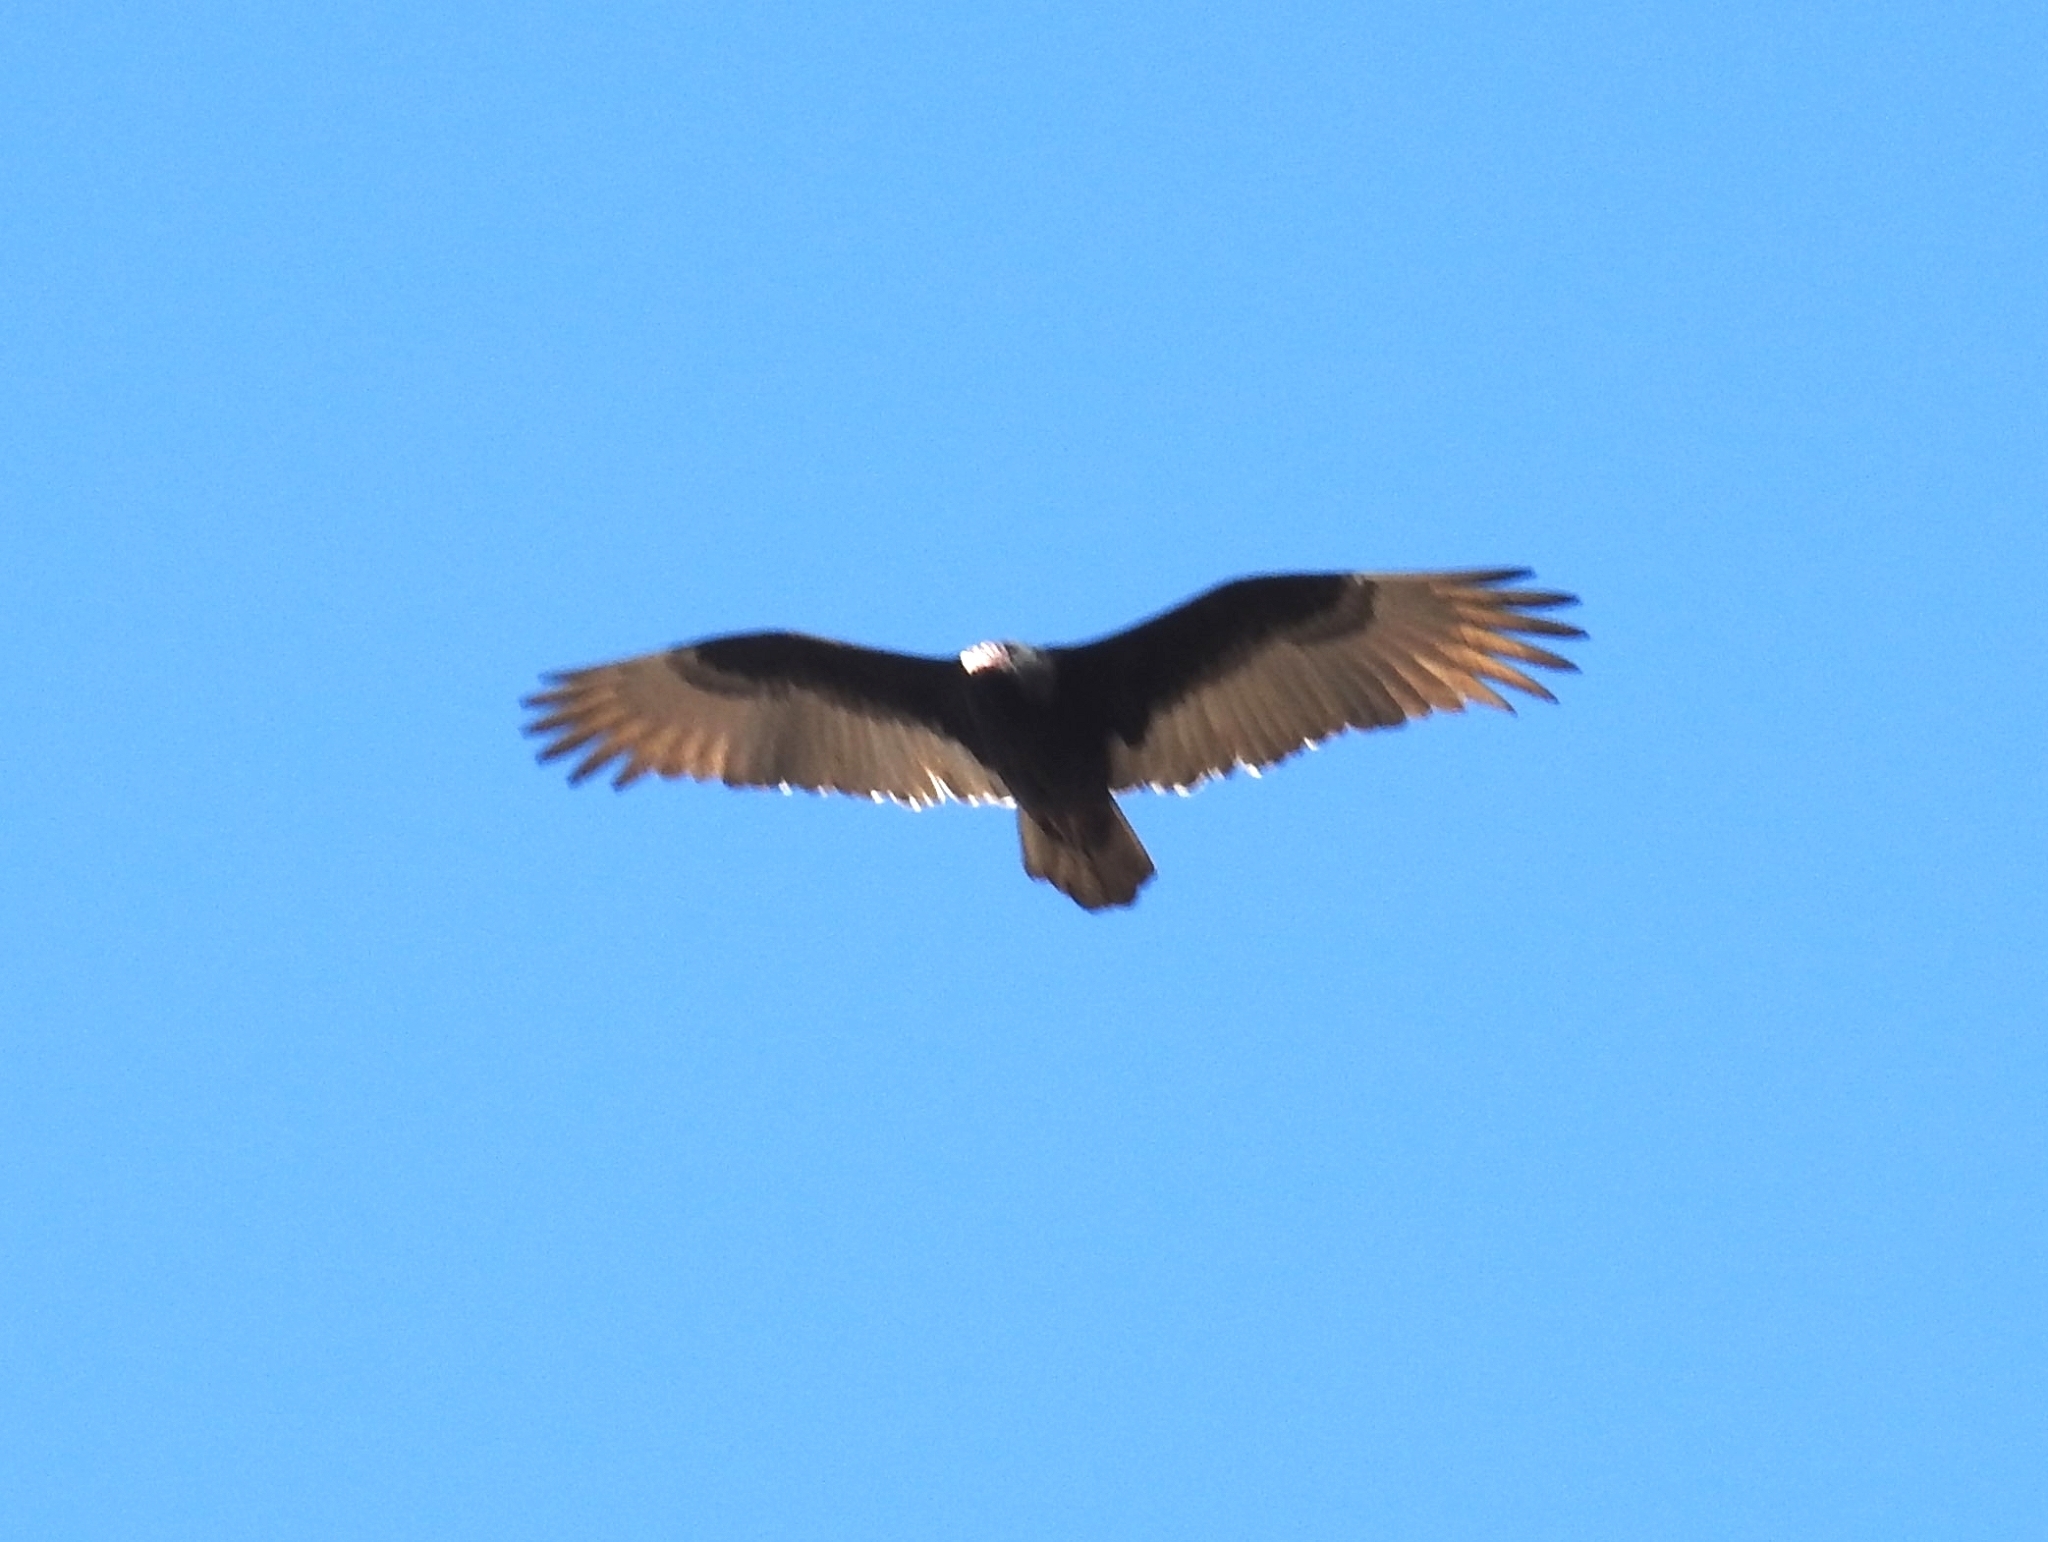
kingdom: Animalia
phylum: Chordata
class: Aves
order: Accipitriformes
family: Cathartidae
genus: Cathartes
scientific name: Cathartes aura
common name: Turkey vulture
